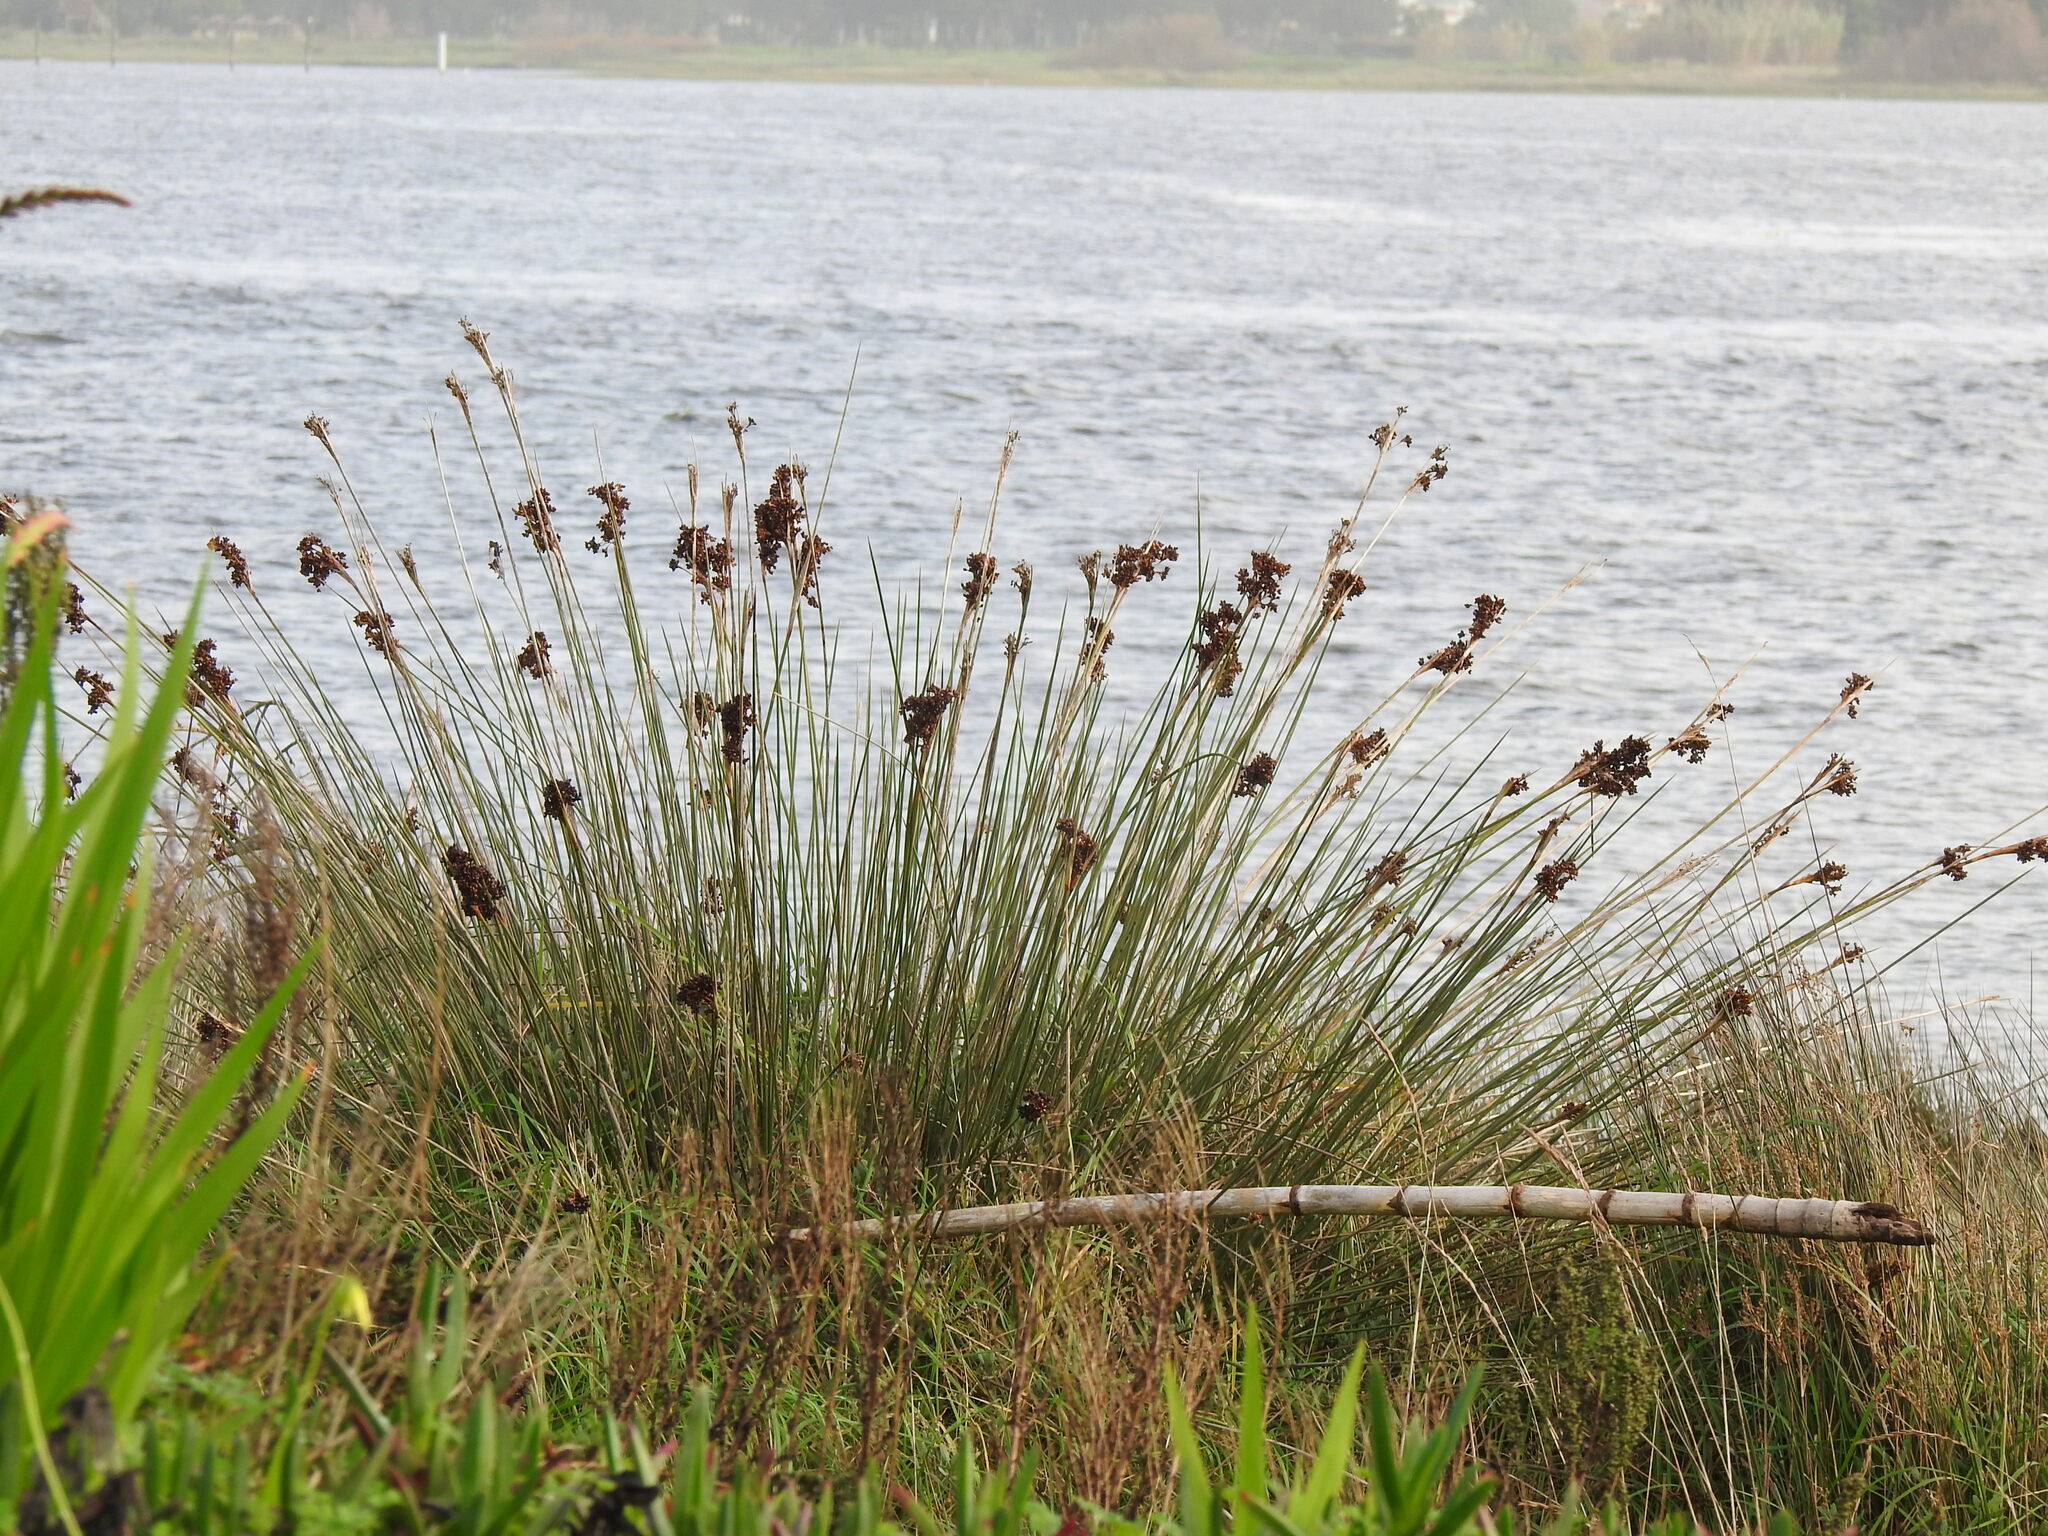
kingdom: Plantae
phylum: Tracheophyta
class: Liliopsida
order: Poales
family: Juncaceae
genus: Juncus
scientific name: Juncus acutus
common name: Sharp rush
